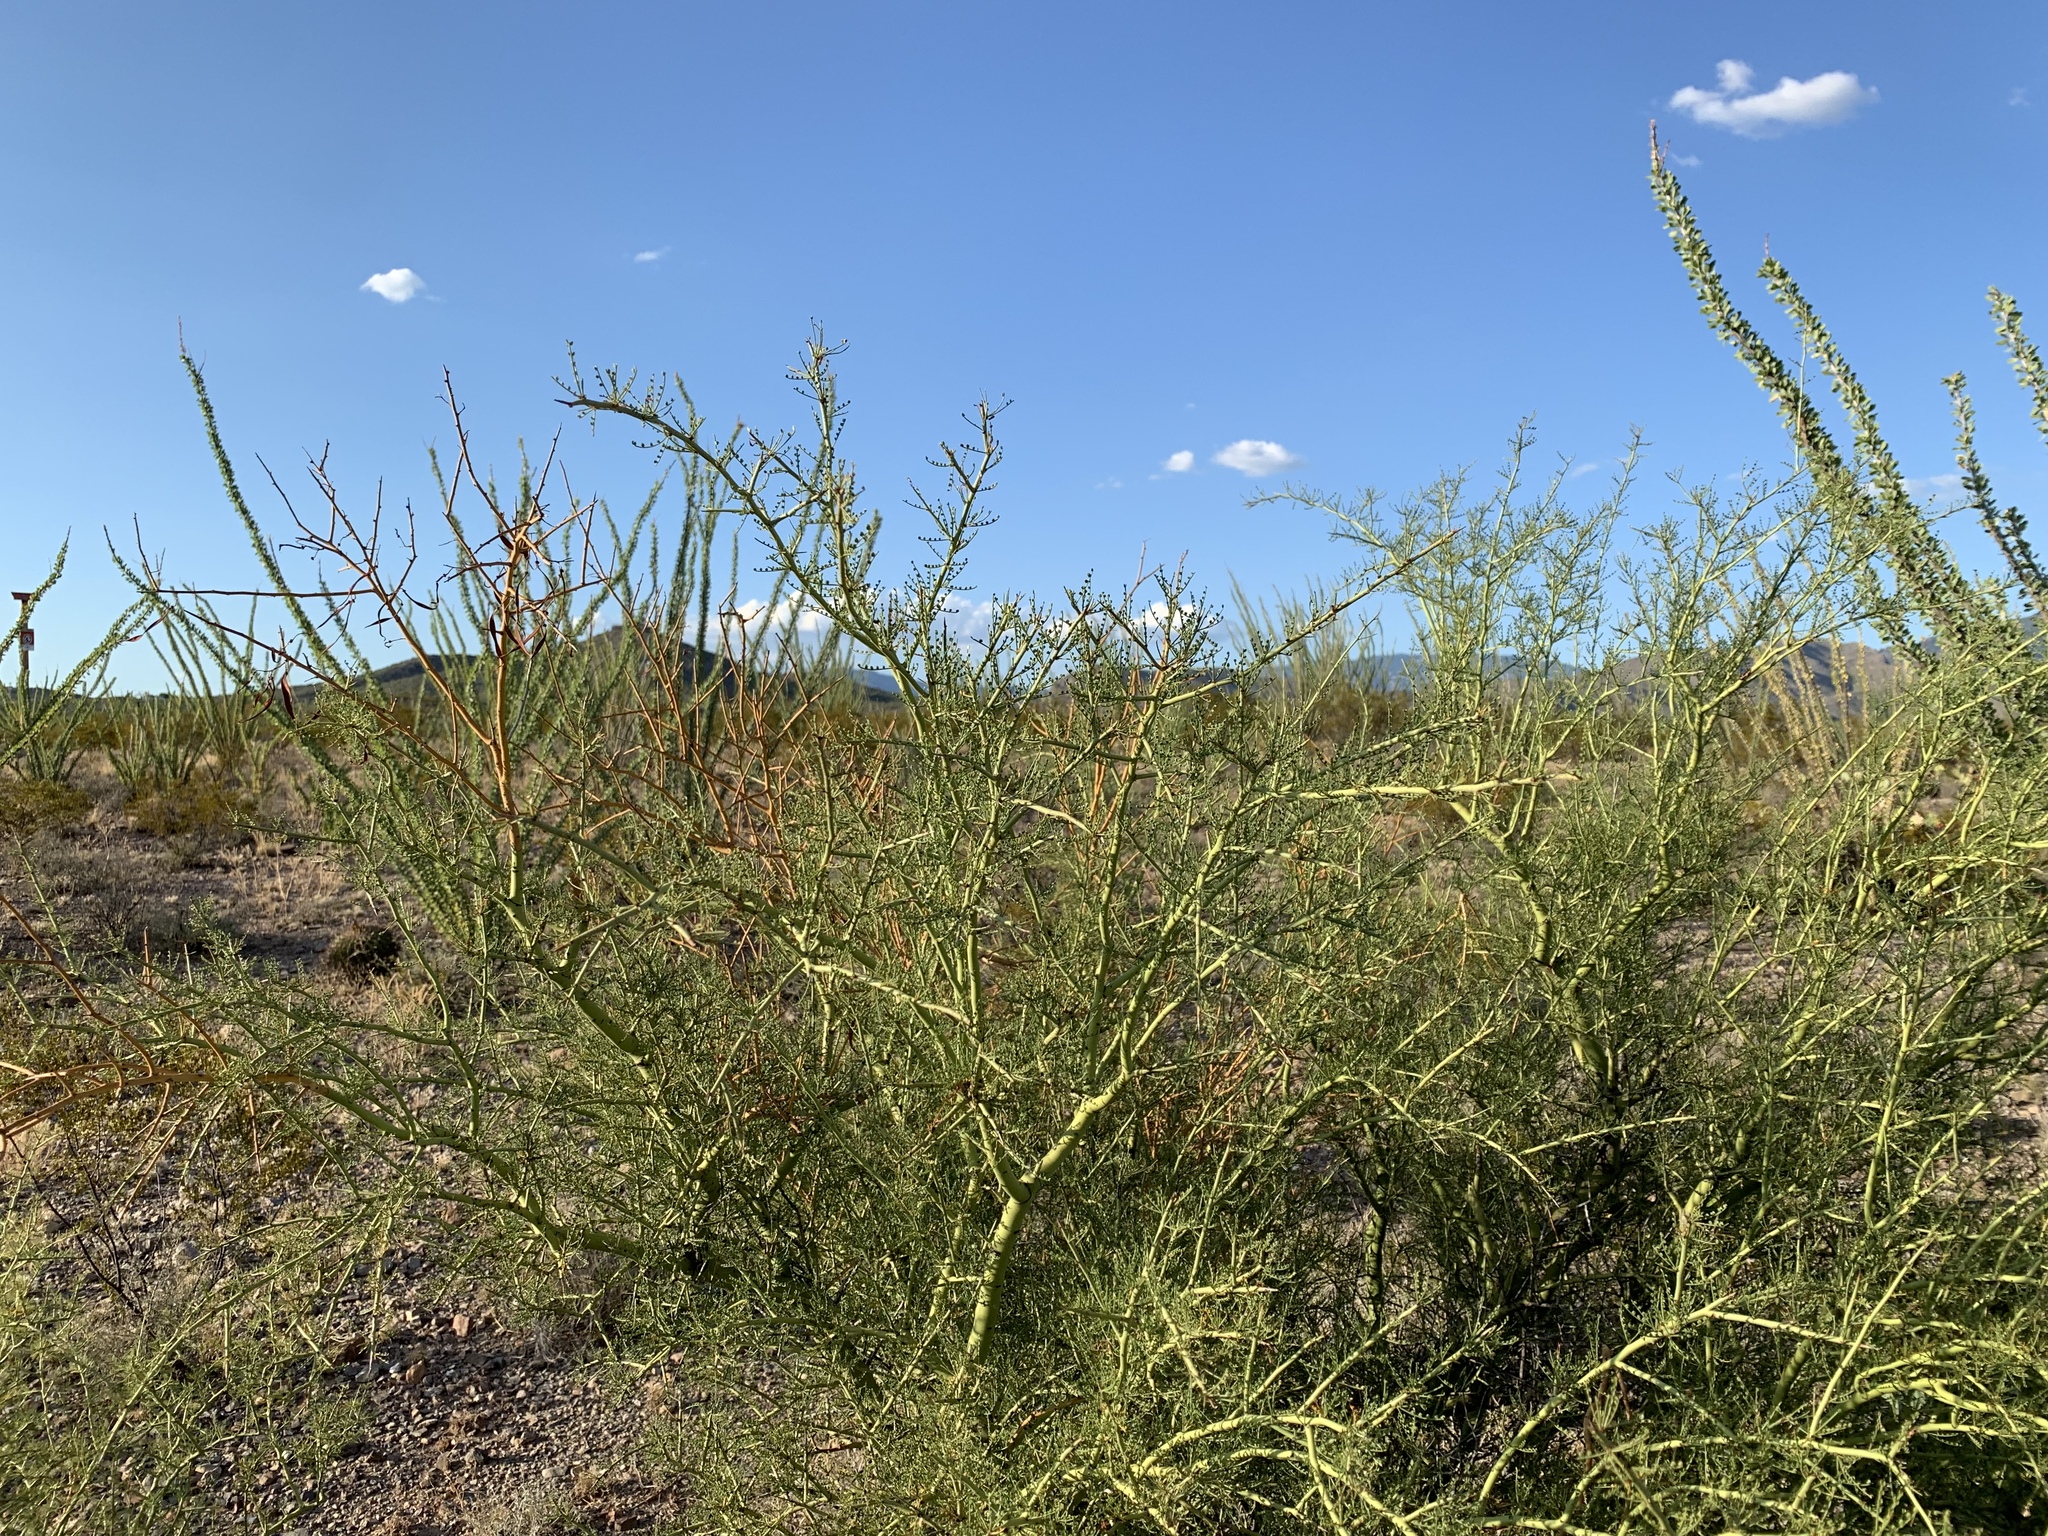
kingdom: Plantae
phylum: Tracheophyta
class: Magnoliopsida
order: Fabales
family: Fabaceae
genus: Parkinsonia
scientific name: Parkinsonia microphylla
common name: Yellow paloverde
